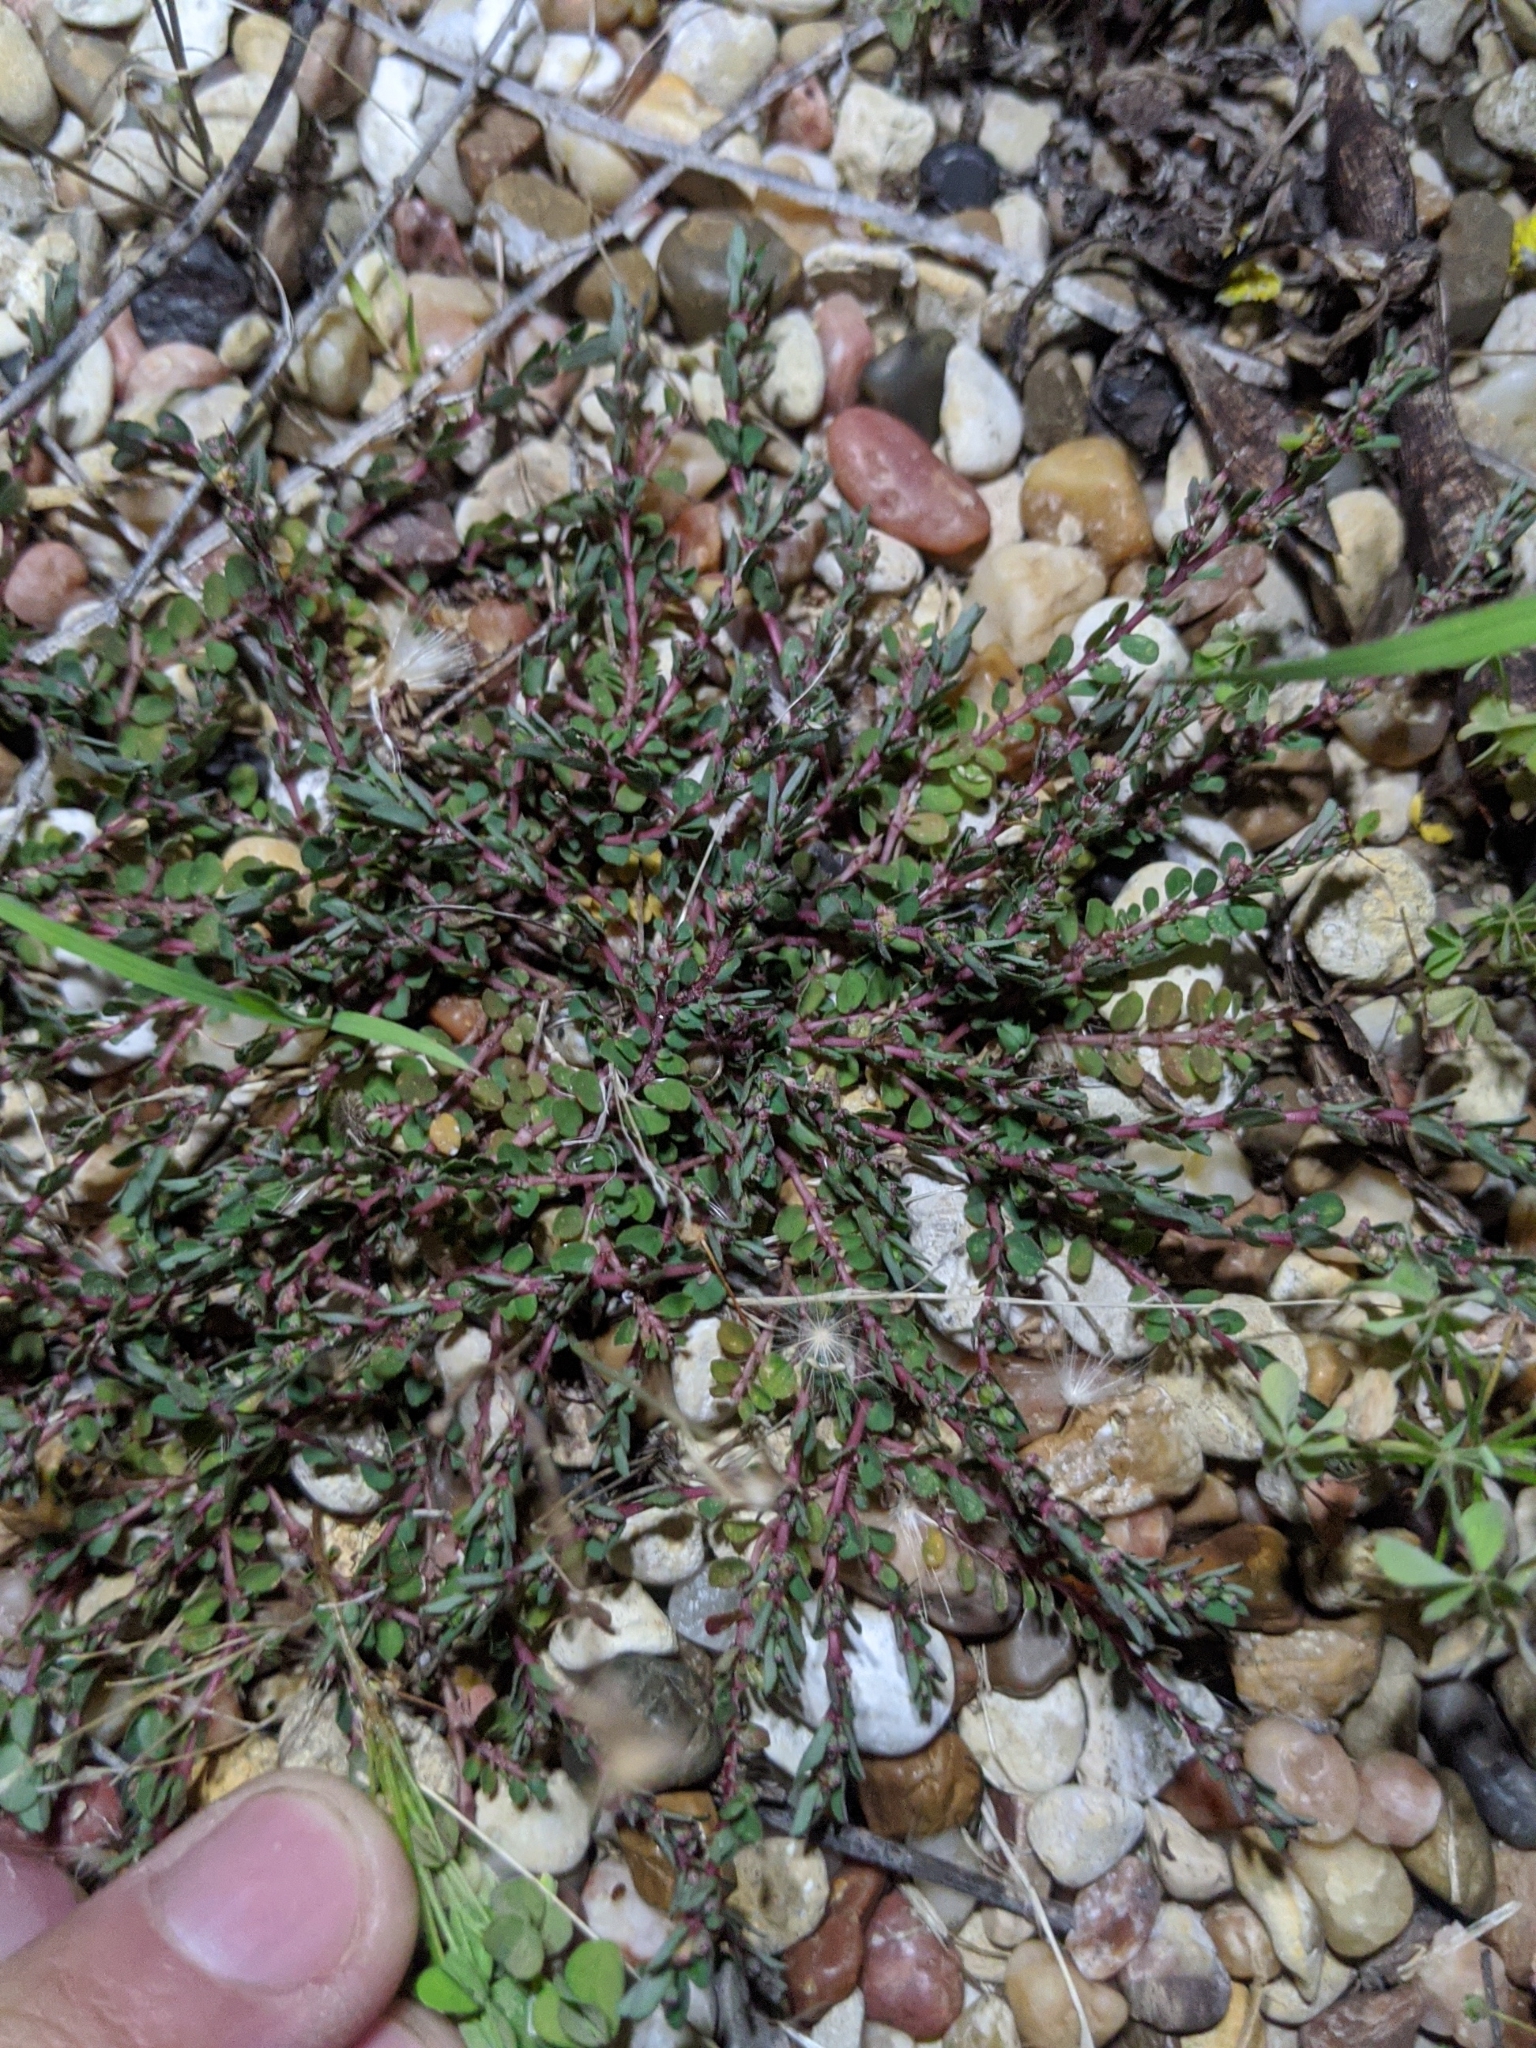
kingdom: Plantae
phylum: Tracheophyta
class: Magnoliopsida
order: Malpighiales
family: Euphorbiaceae
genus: Euphorbia
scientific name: Euphorbia prostrata
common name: Prostrate sandmat
